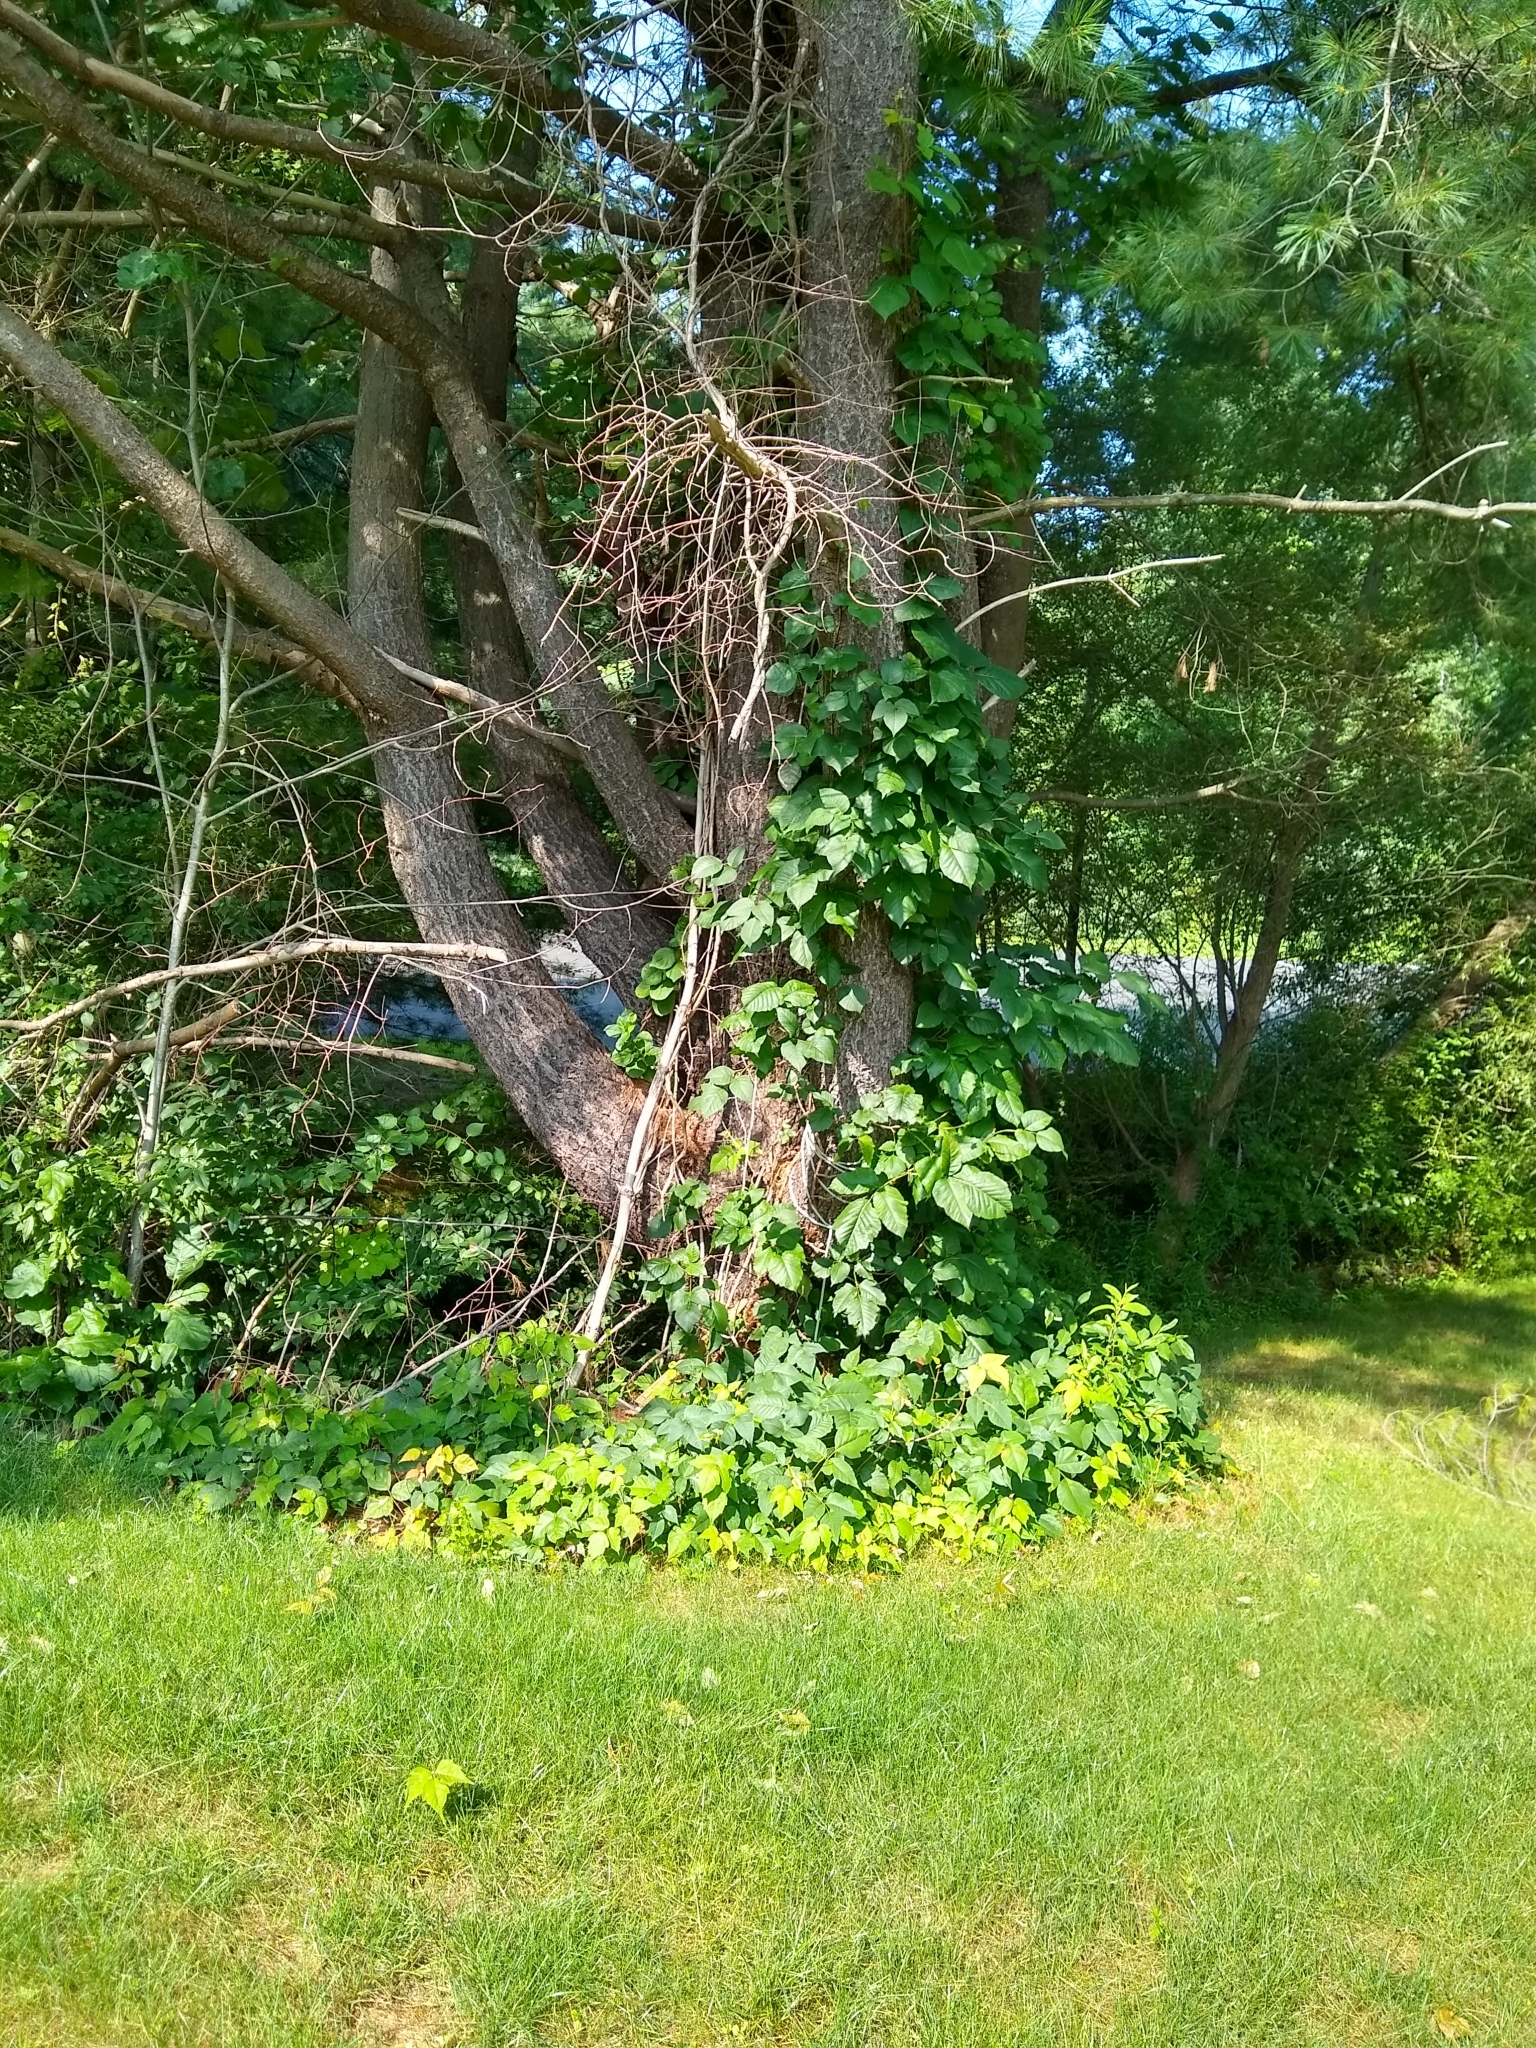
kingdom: Plantae
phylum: Tracheophyta
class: Magnoliopsida
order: Sapindales
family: Anacardiaceae
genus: Toxicodendron
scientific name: Toxicodendron radicans
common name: Poison ivy
